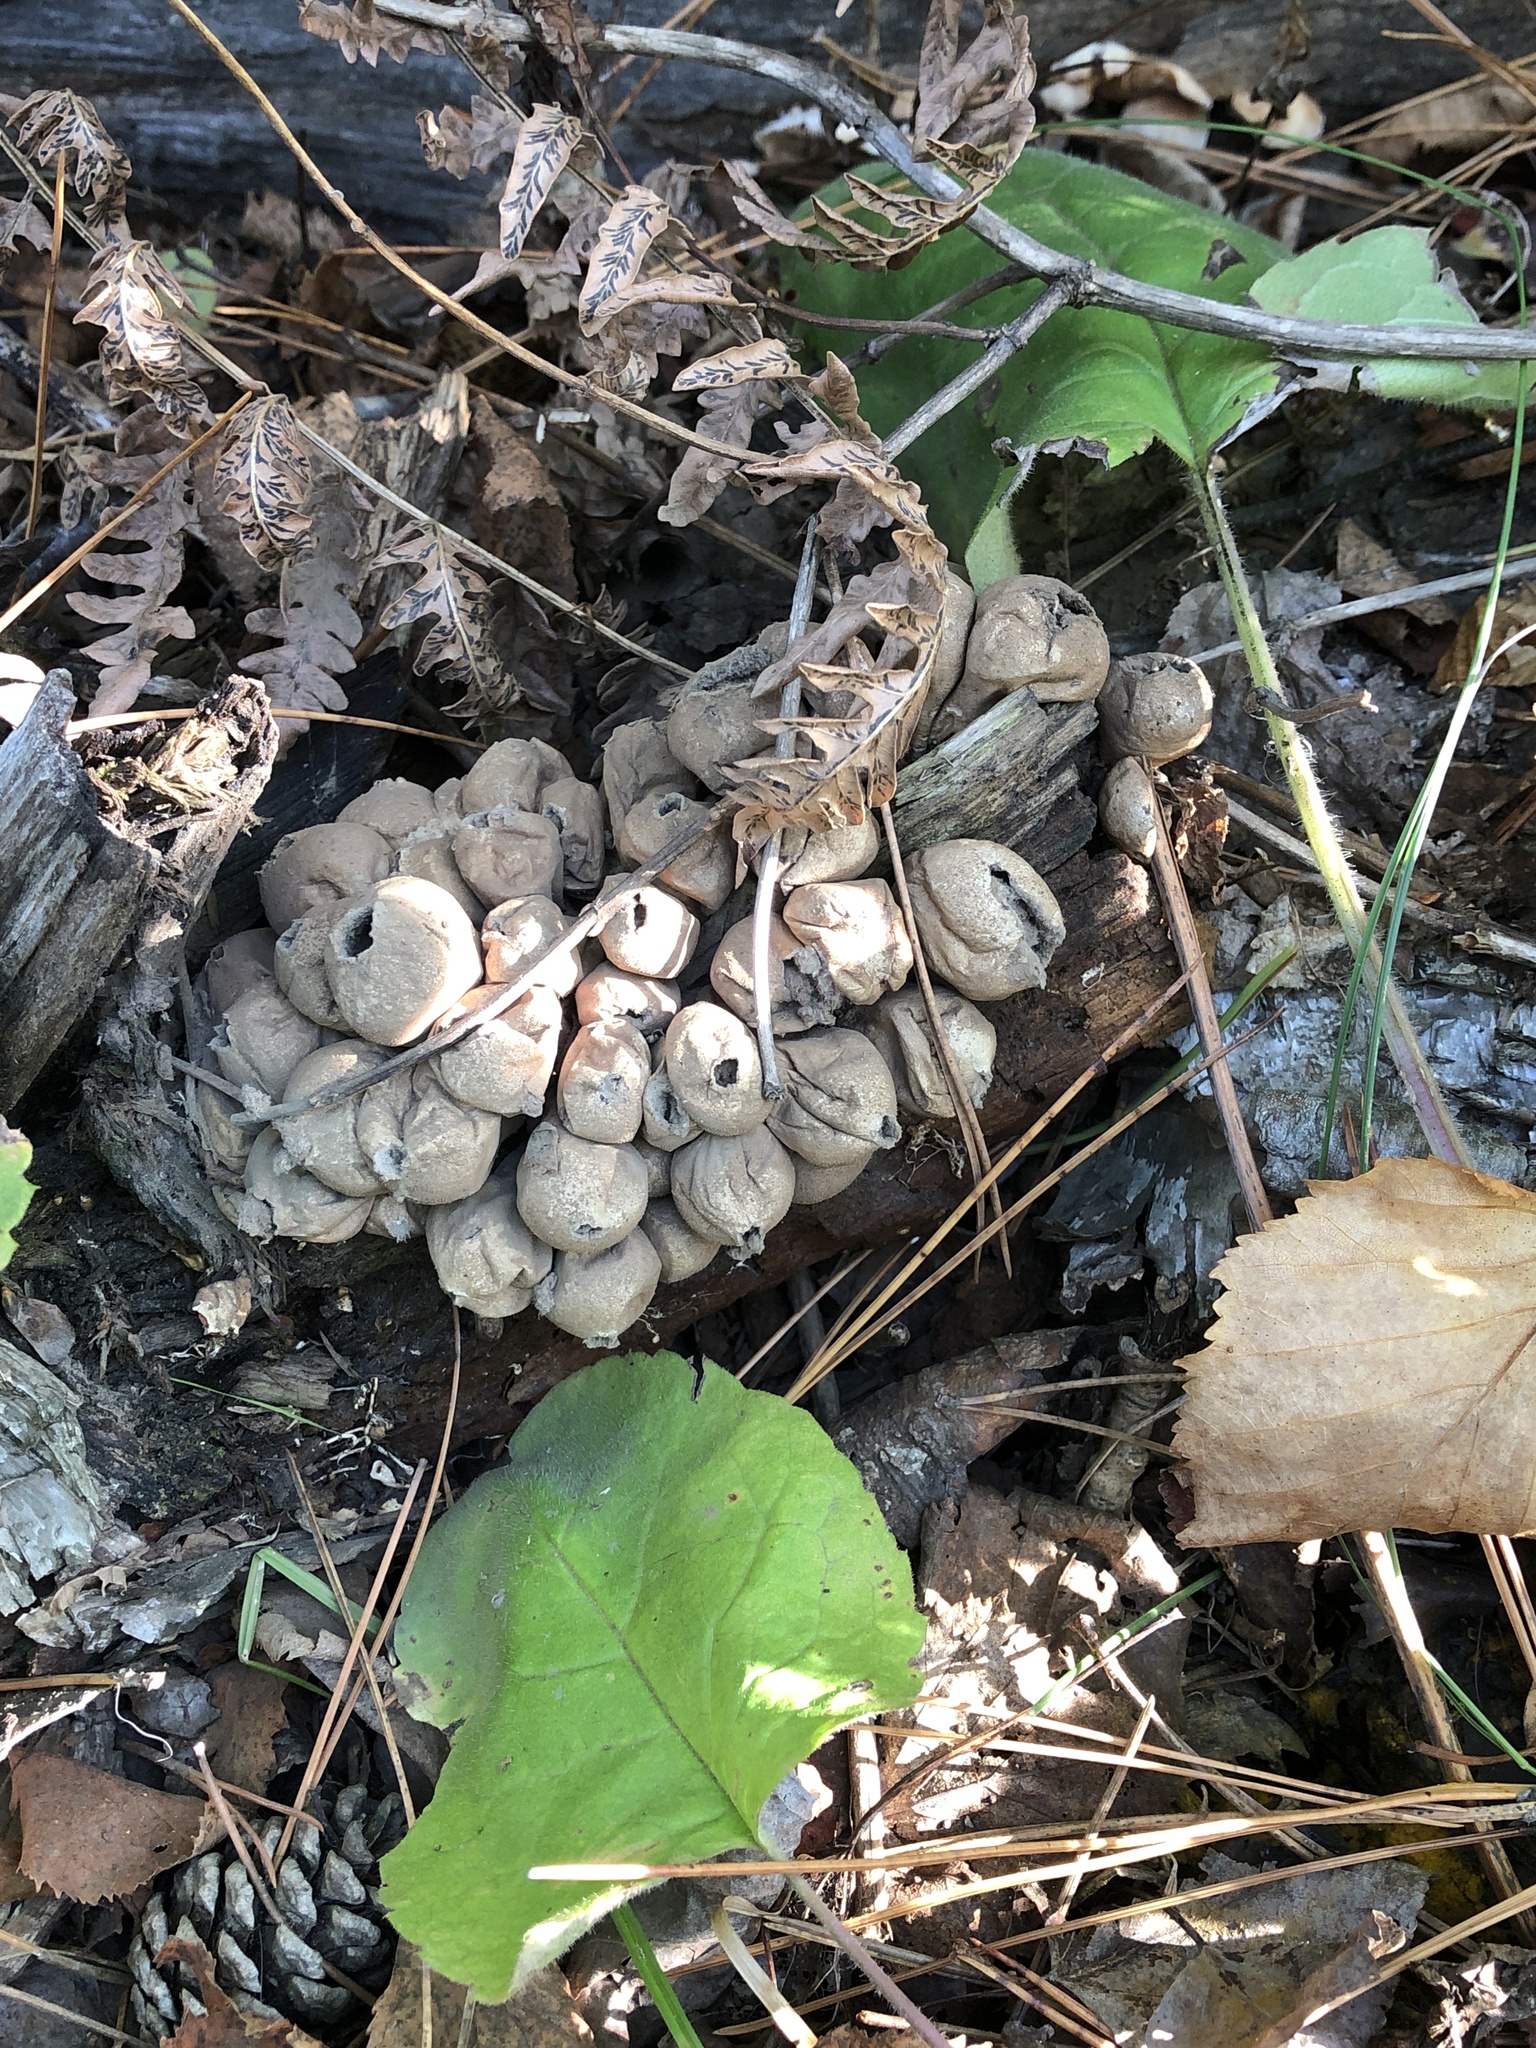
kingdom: Fungi
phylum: Basidiomycota
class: Agaricomycetes
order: Agaricales
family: Lycoperdaceae
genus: Apioperdon
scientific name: Apioperdon pyriforme
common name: Pear-shaped puffball
